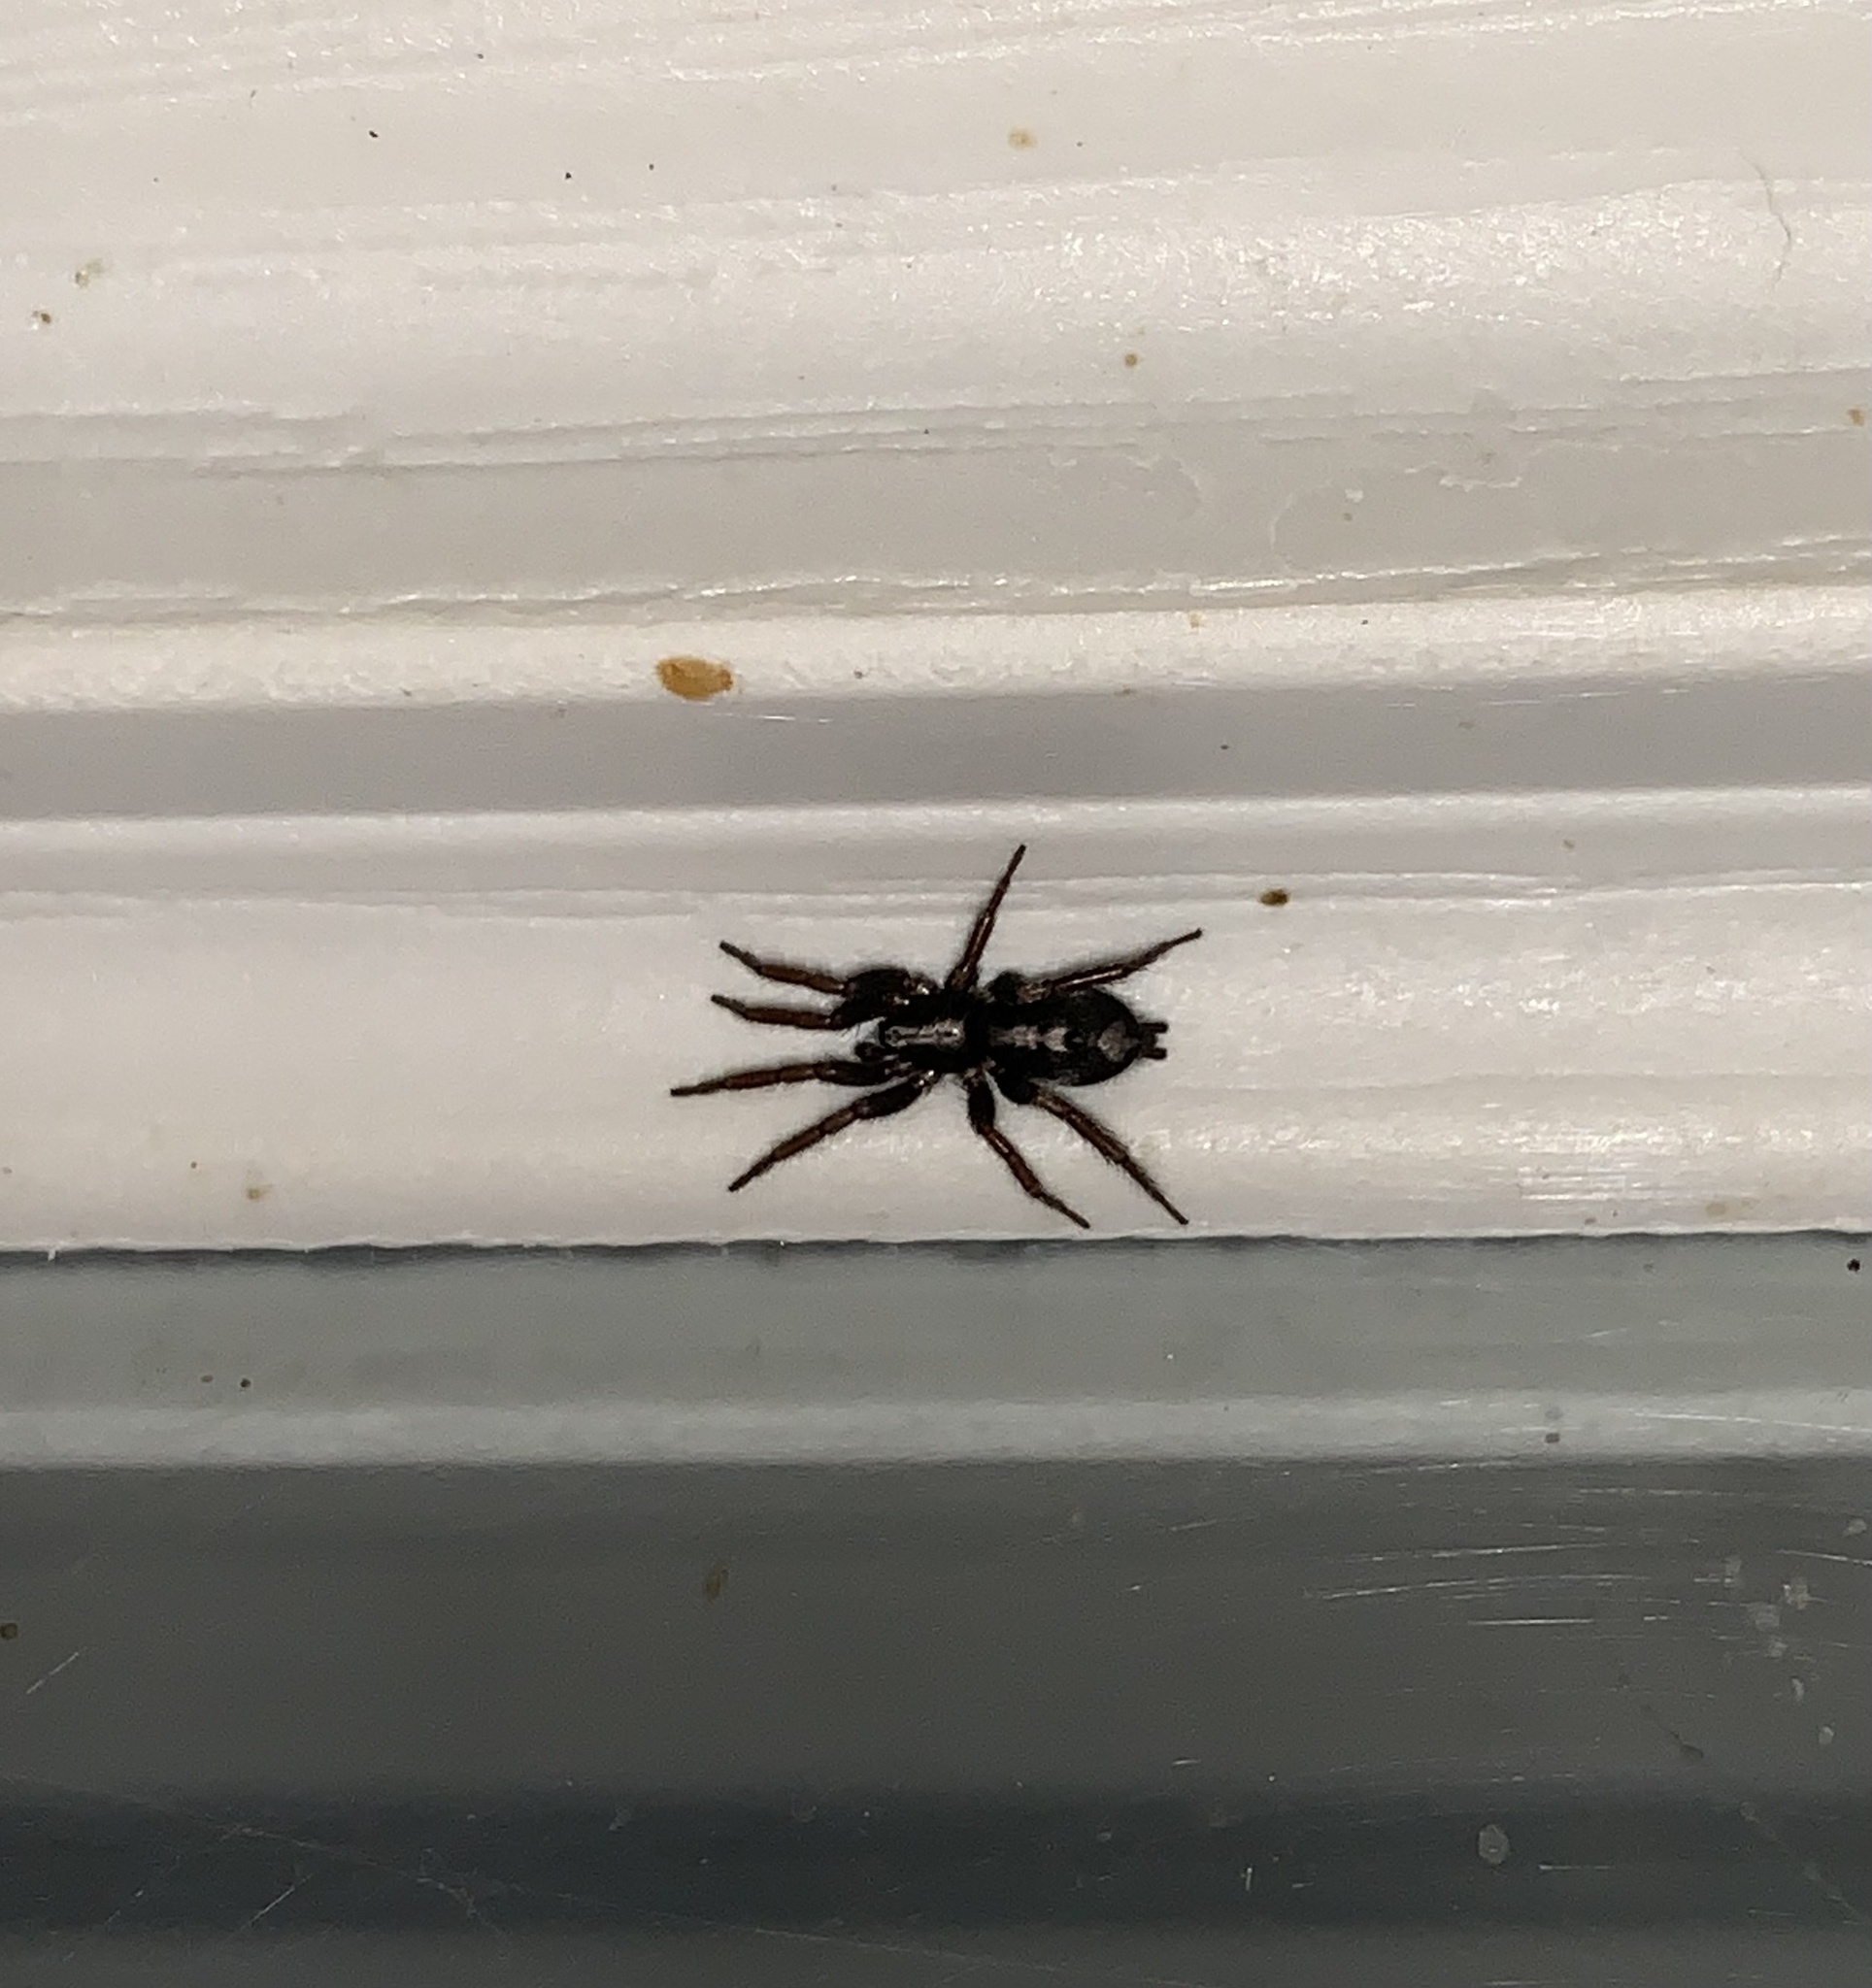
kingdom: Animalia
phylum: Arthropoda
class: Arachnida
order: Araneae
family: Gnaphosidae
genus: Herpyllus
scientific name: Herpyllus ecclesiasticus
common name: Eastern parson spider
